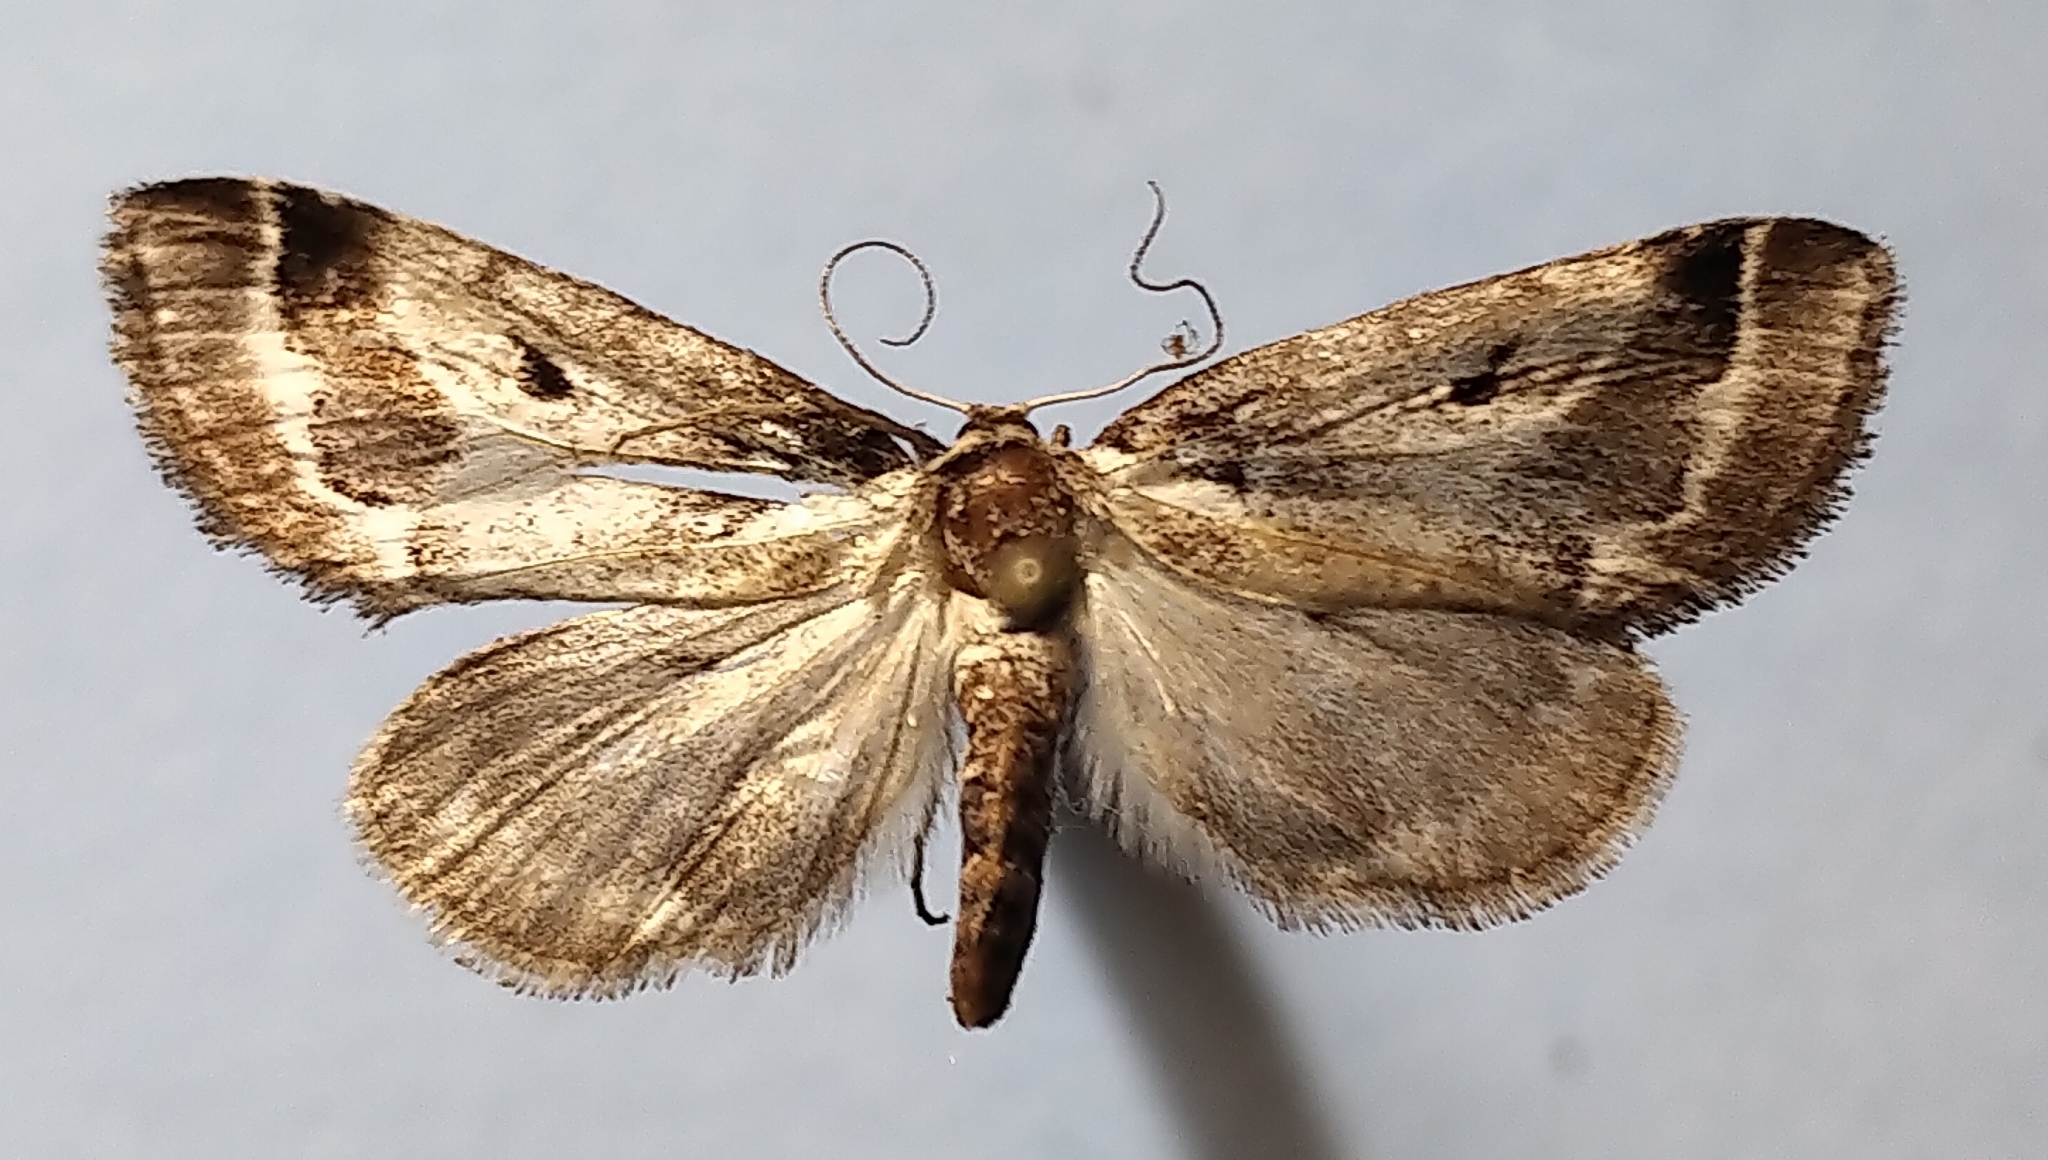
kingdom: Animalia
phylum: Arthropoda
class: Insecta
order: Lepidoptera
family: Nolidae
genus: Baileya
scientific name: Baileya doubledayi
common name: Doubleday's baileya moth
